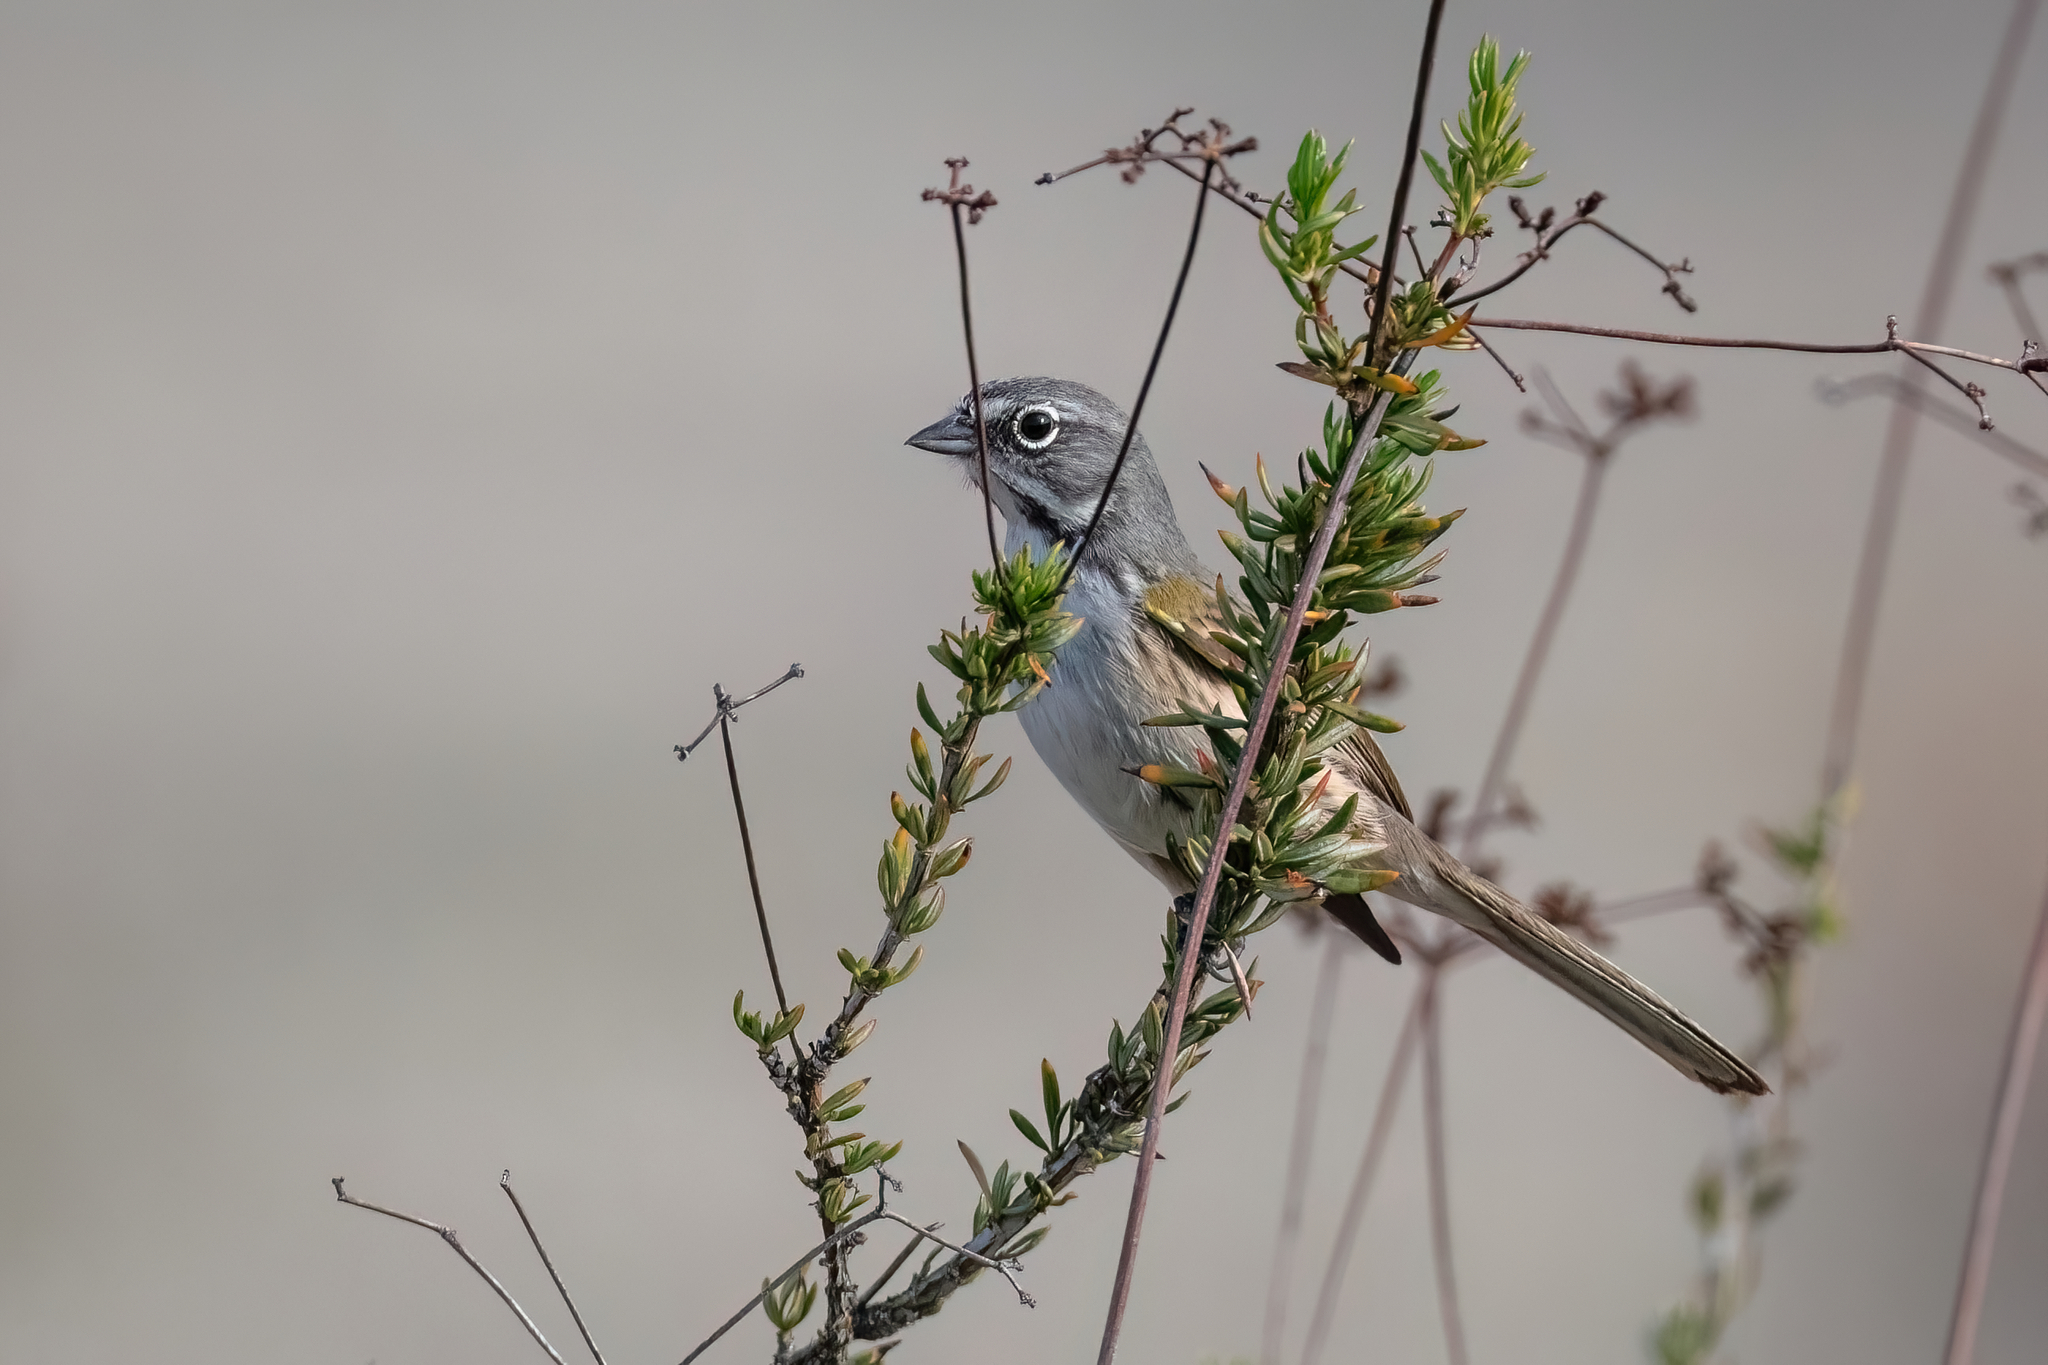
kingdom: Animalia
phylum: Chordata
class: Aves
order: Passeriformes
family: Passerellidae
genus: Artemisiospiza
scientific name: Artemisiospiza belli
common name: Bell's sparrow
